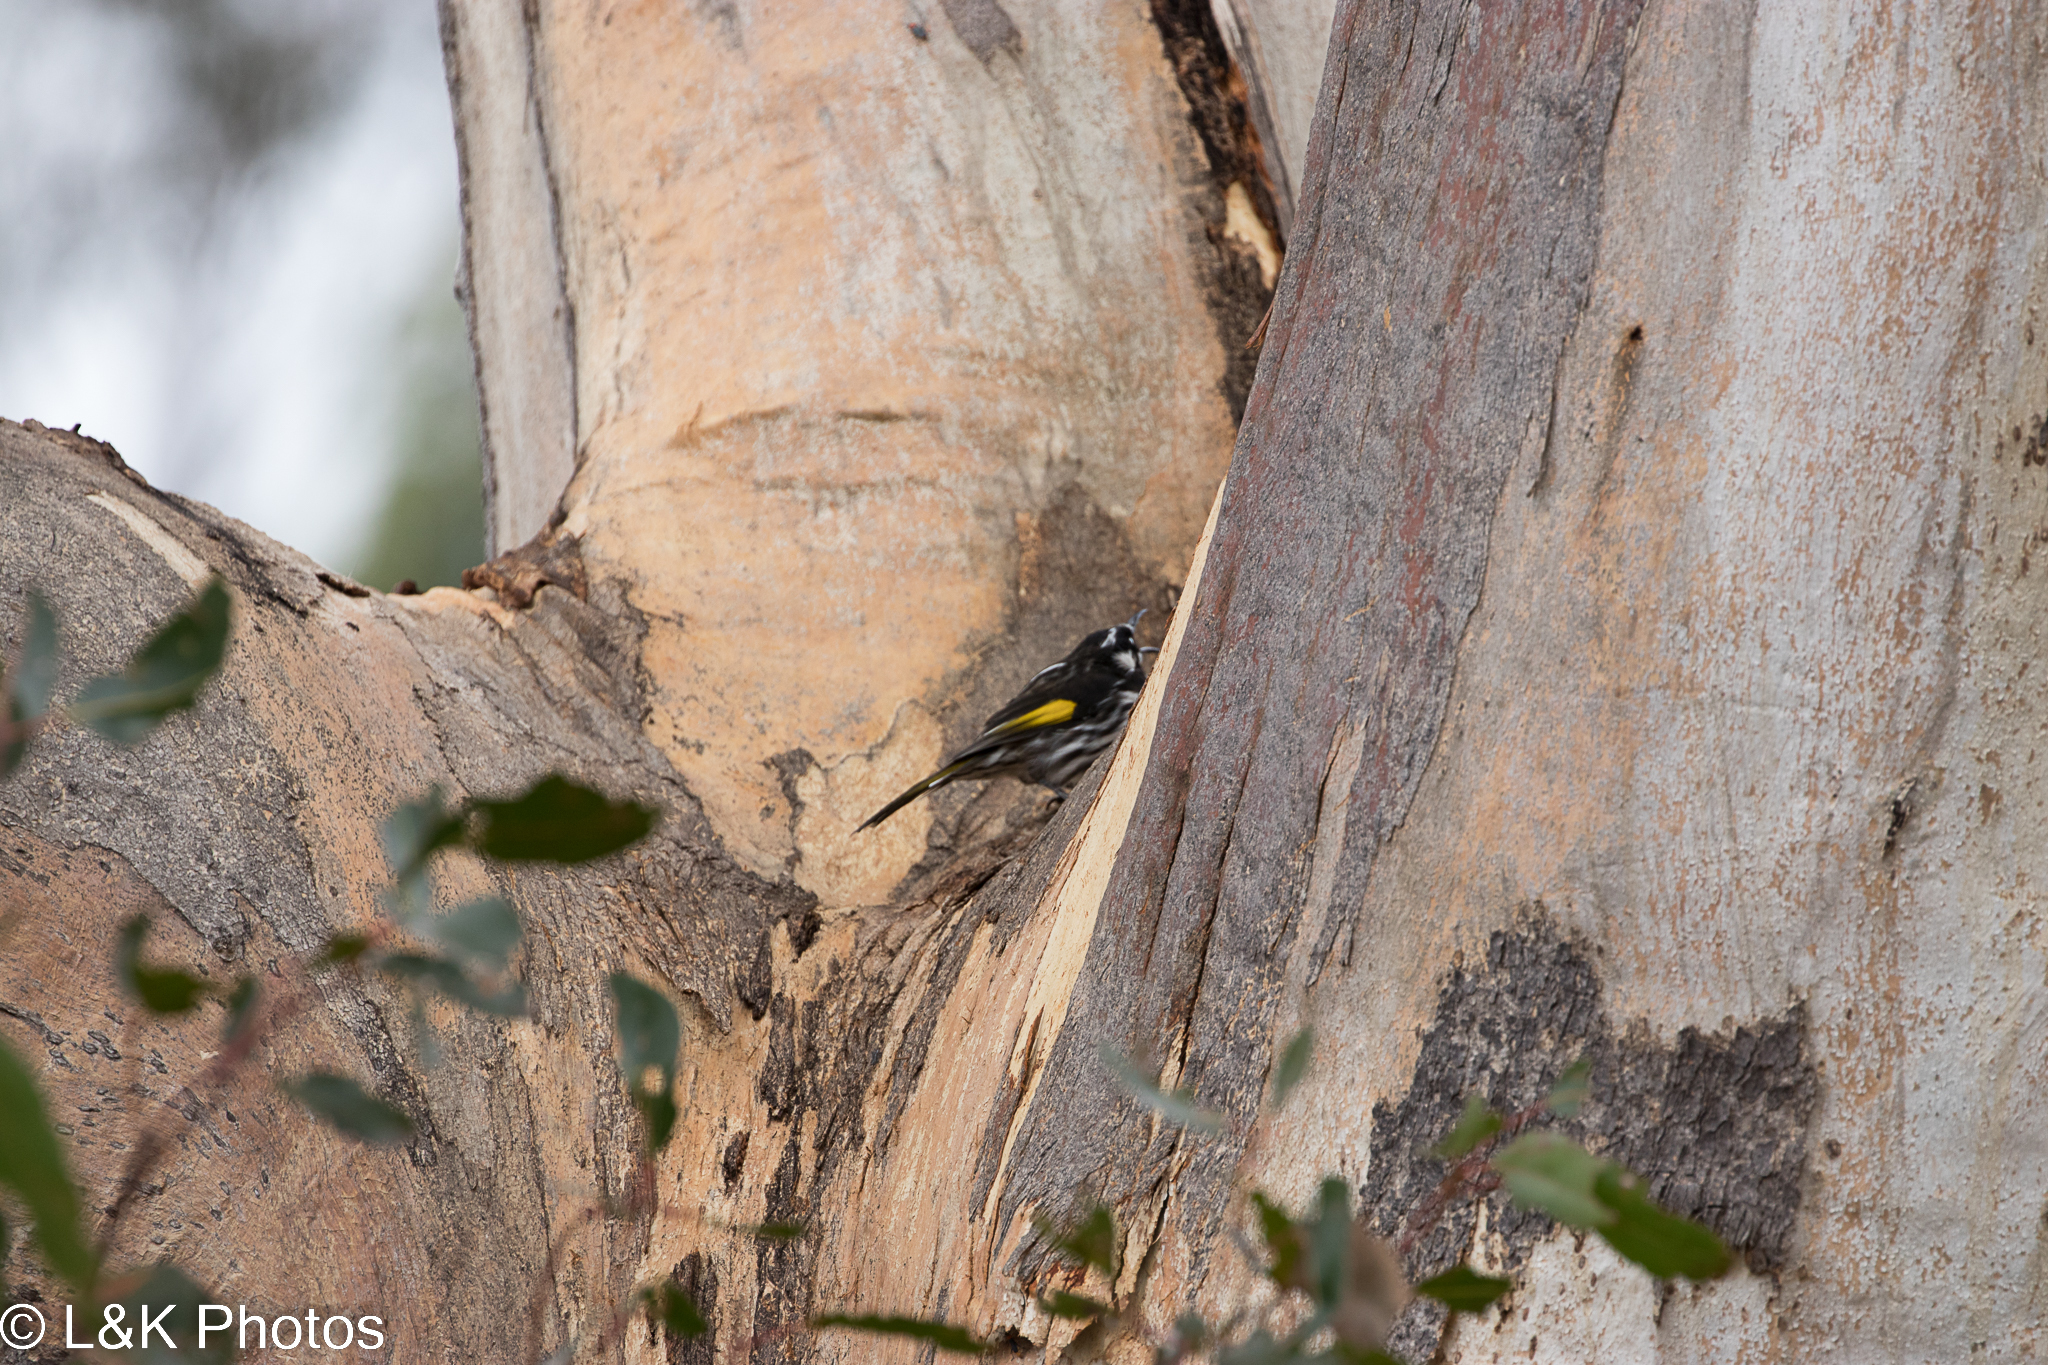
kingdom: Animalia
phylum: Chordata
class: Aves
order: Passeriformes
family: Meliphagidae
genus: Phylidonyris
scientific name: Phylidonyris novaehollandiae
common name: New holland honeyeater
